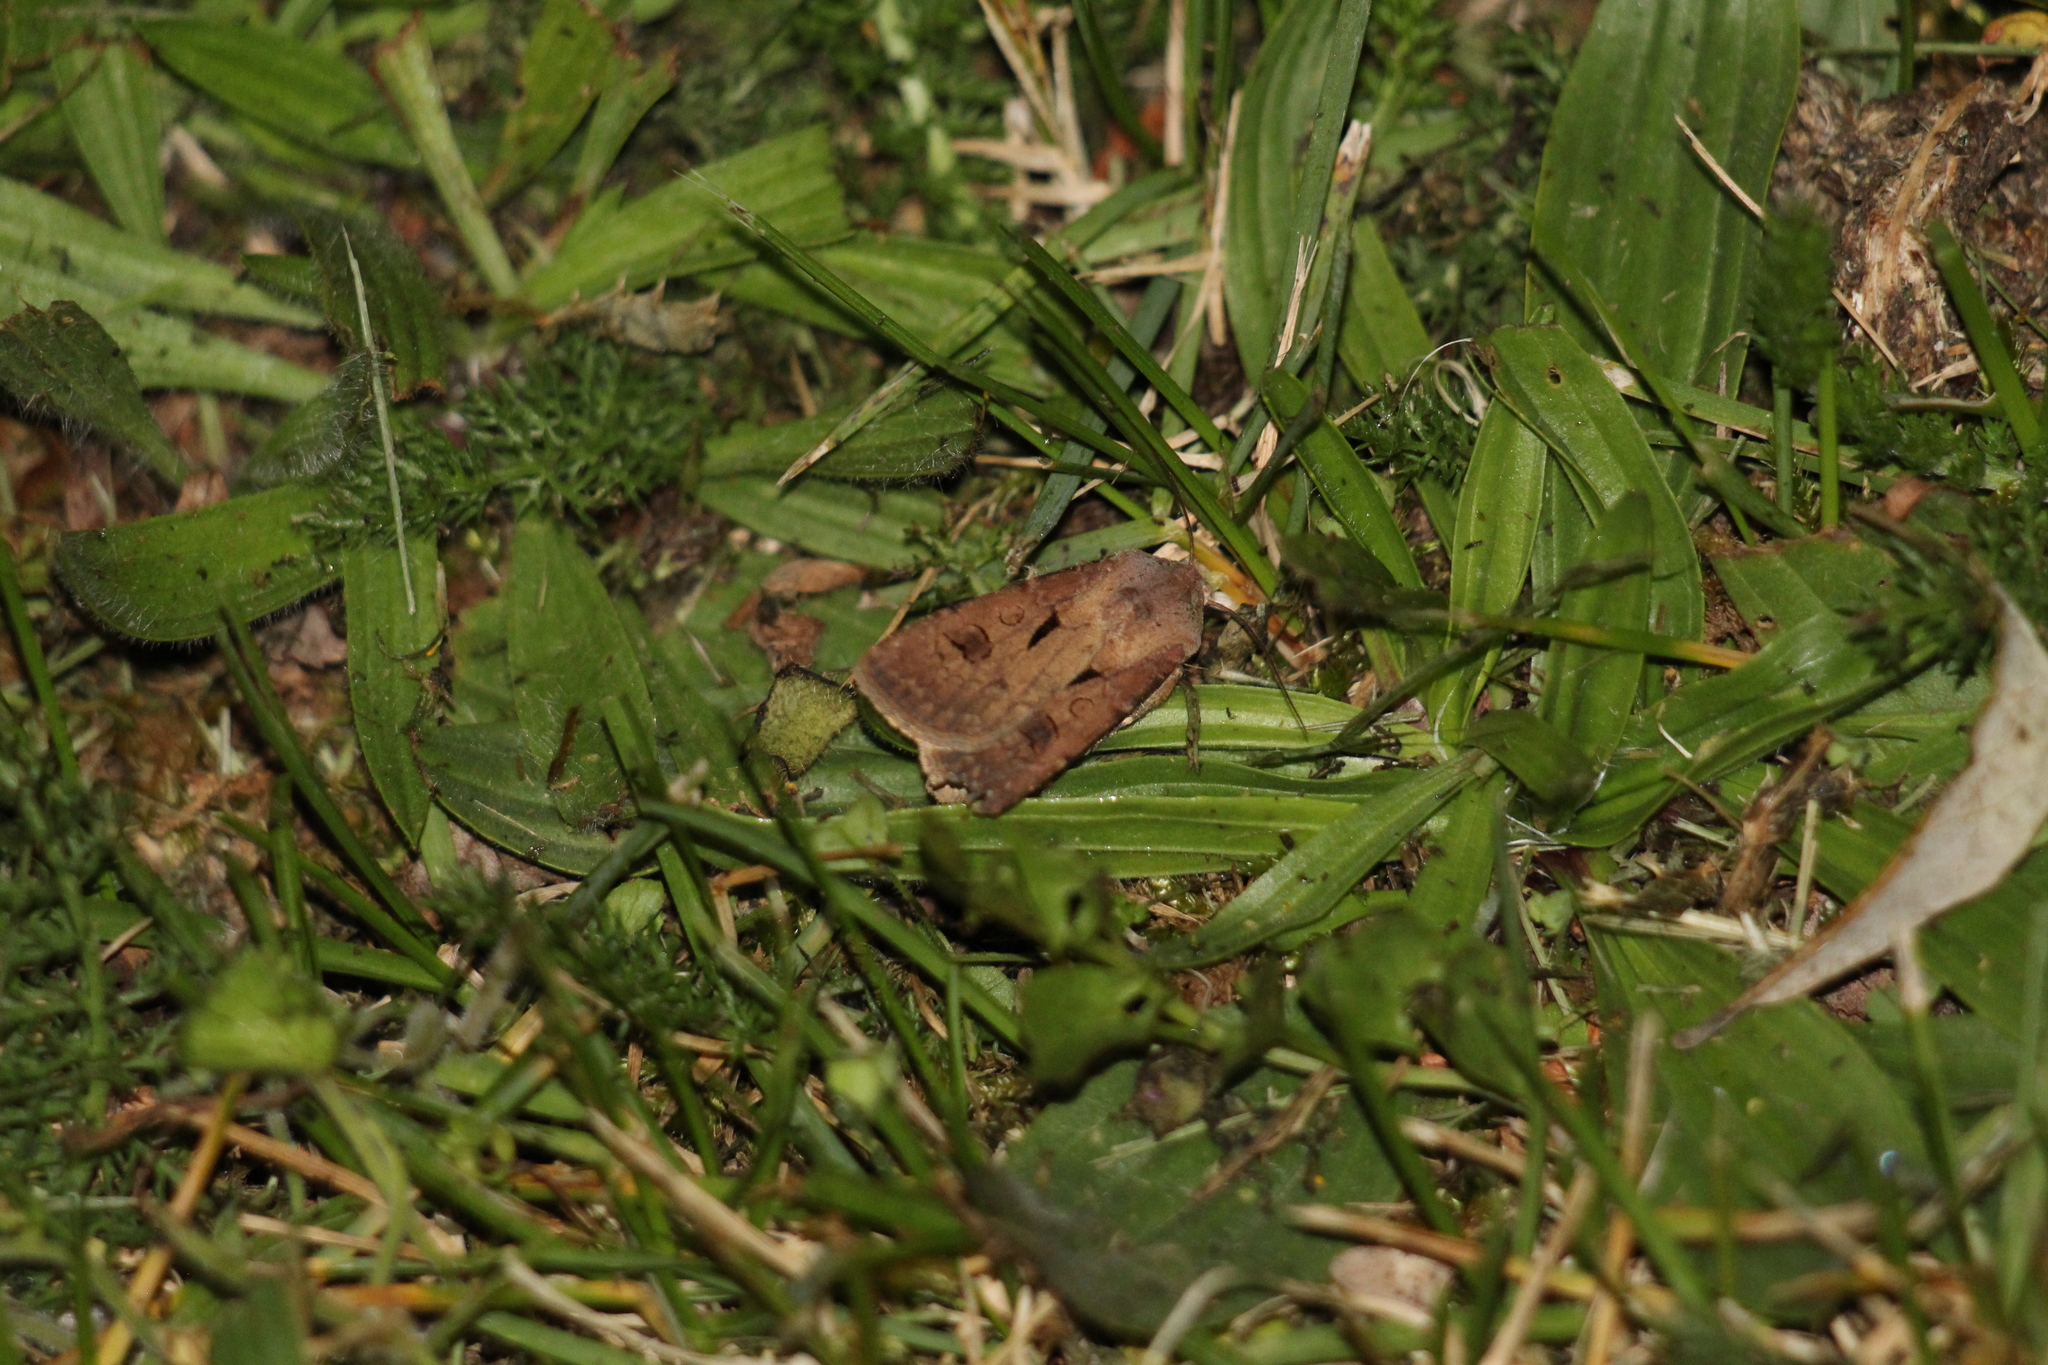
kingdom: Animalia
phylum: Arthropoda
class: Insecta
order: Lepidoptera
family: Noctuidae
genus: Agrotis
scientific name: Agrotis exclamationis
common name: Heart and dart
